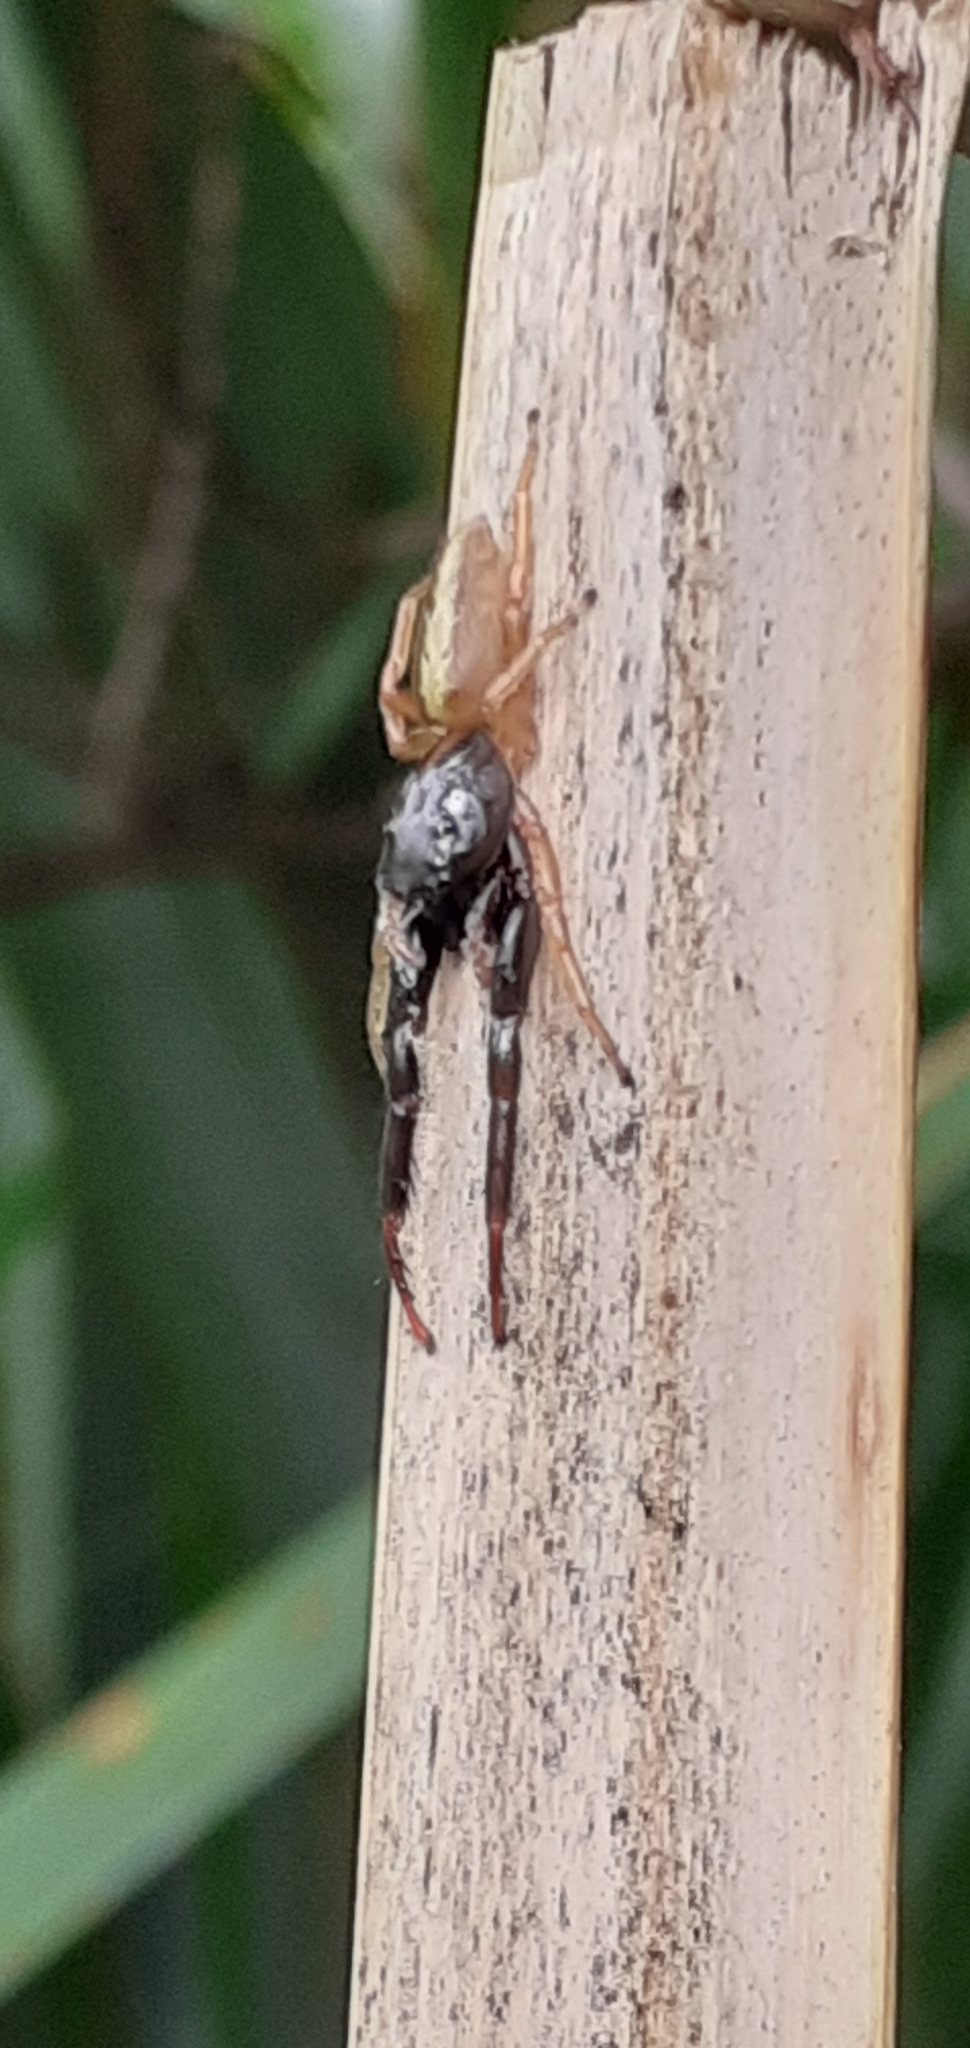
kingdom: Animalia
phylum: Arthropoda
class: Arachnida
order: Araneae
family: Salticidae
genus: Trite
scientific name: Trite planiceps
